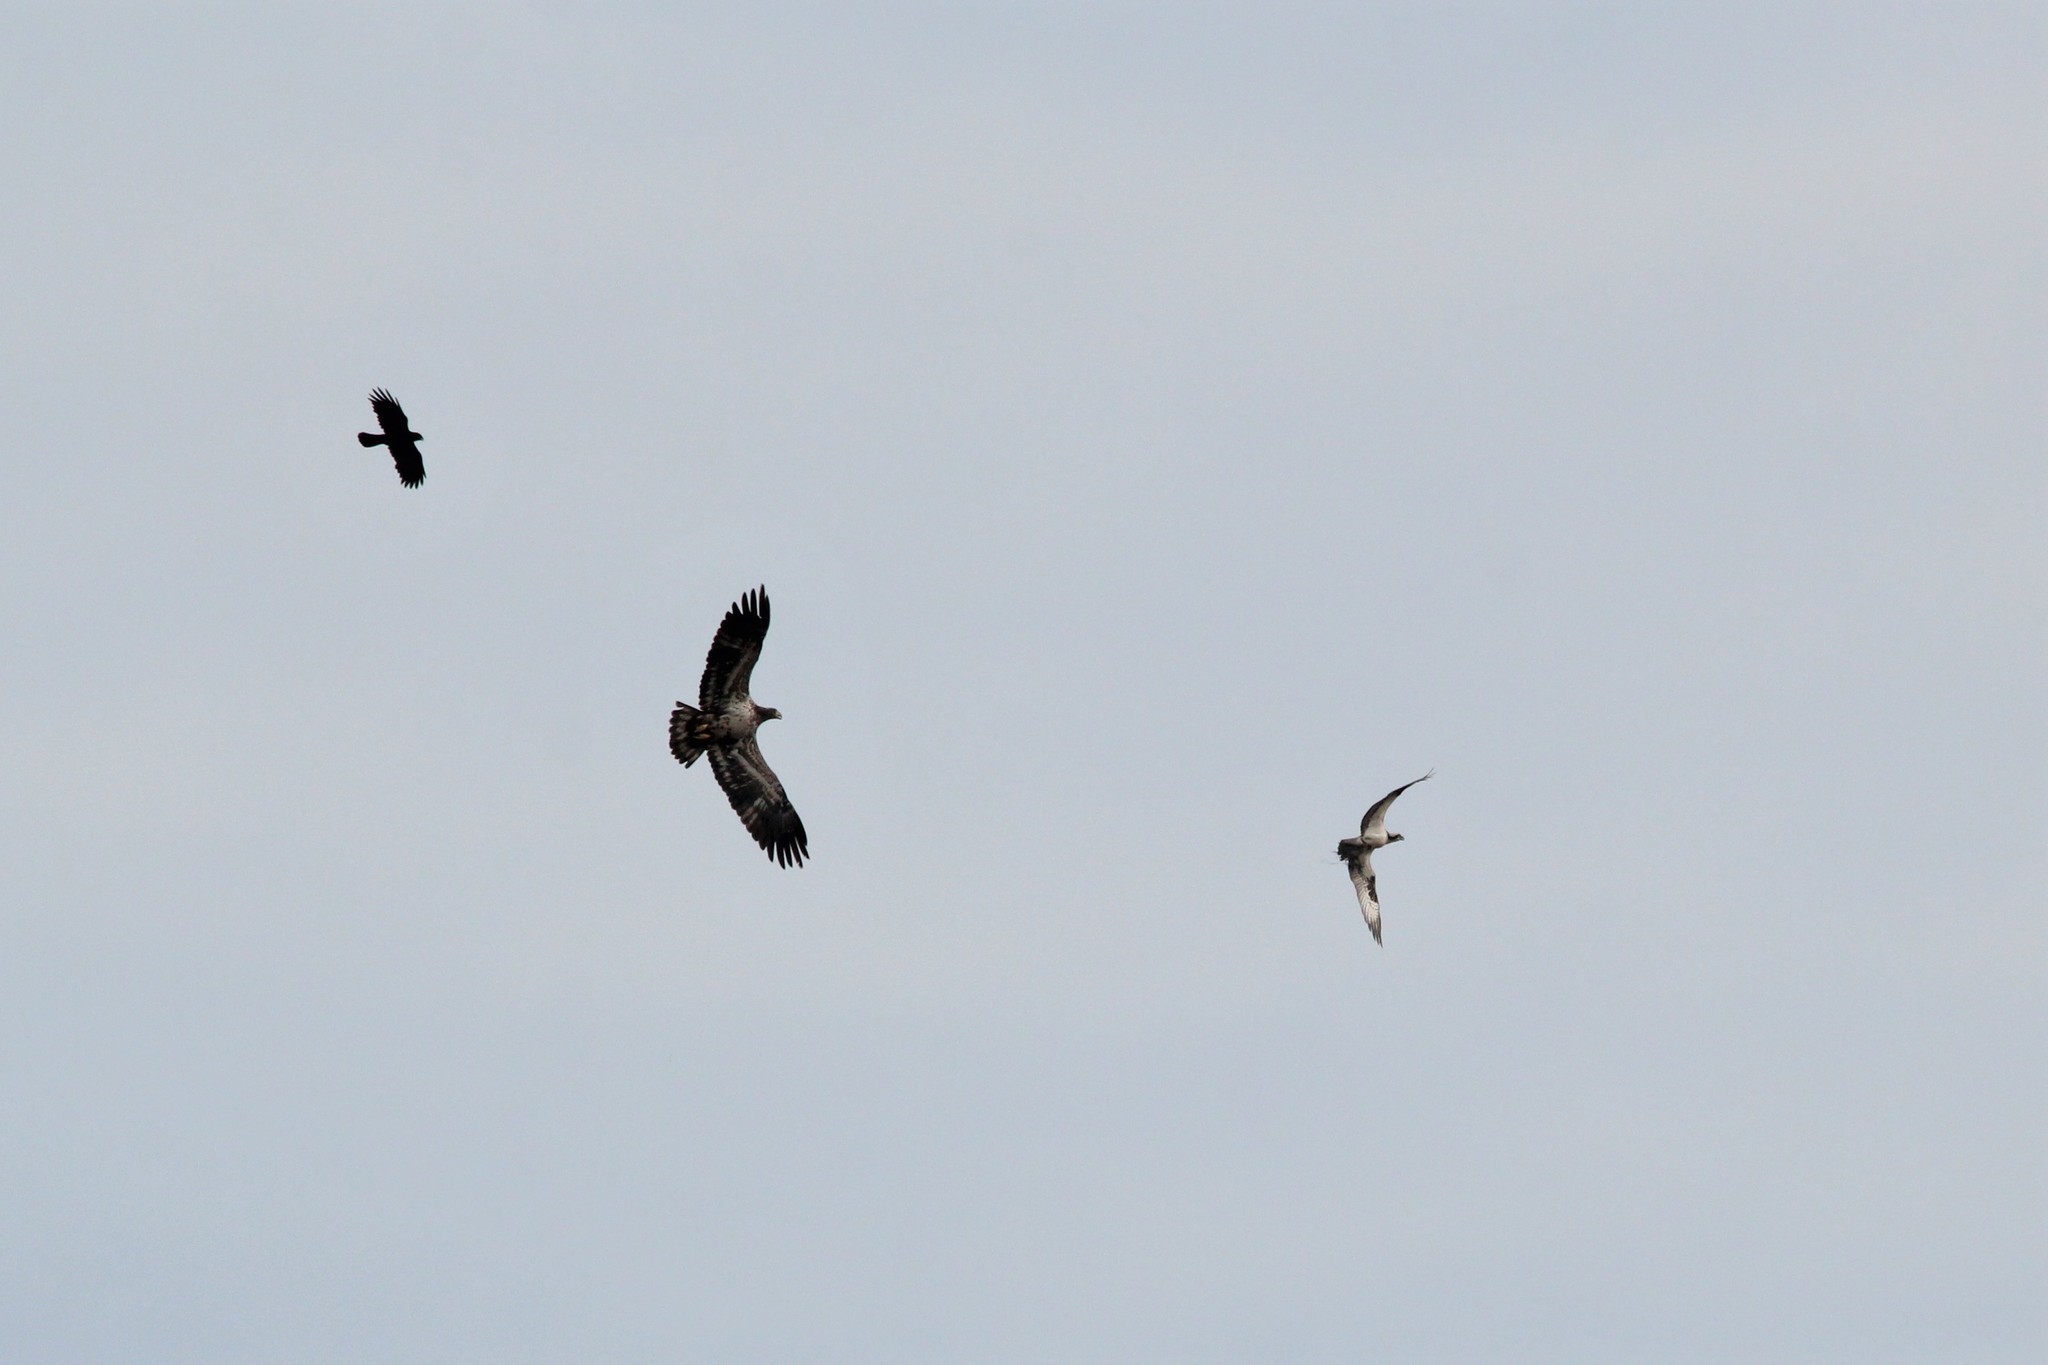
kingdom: Animalia
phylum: Chordata
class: Aves
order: Accipitriformes
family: Accipitridae
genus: Haliaeetus
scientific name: Haliaeetus leucocephalus
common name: Bald eagle
